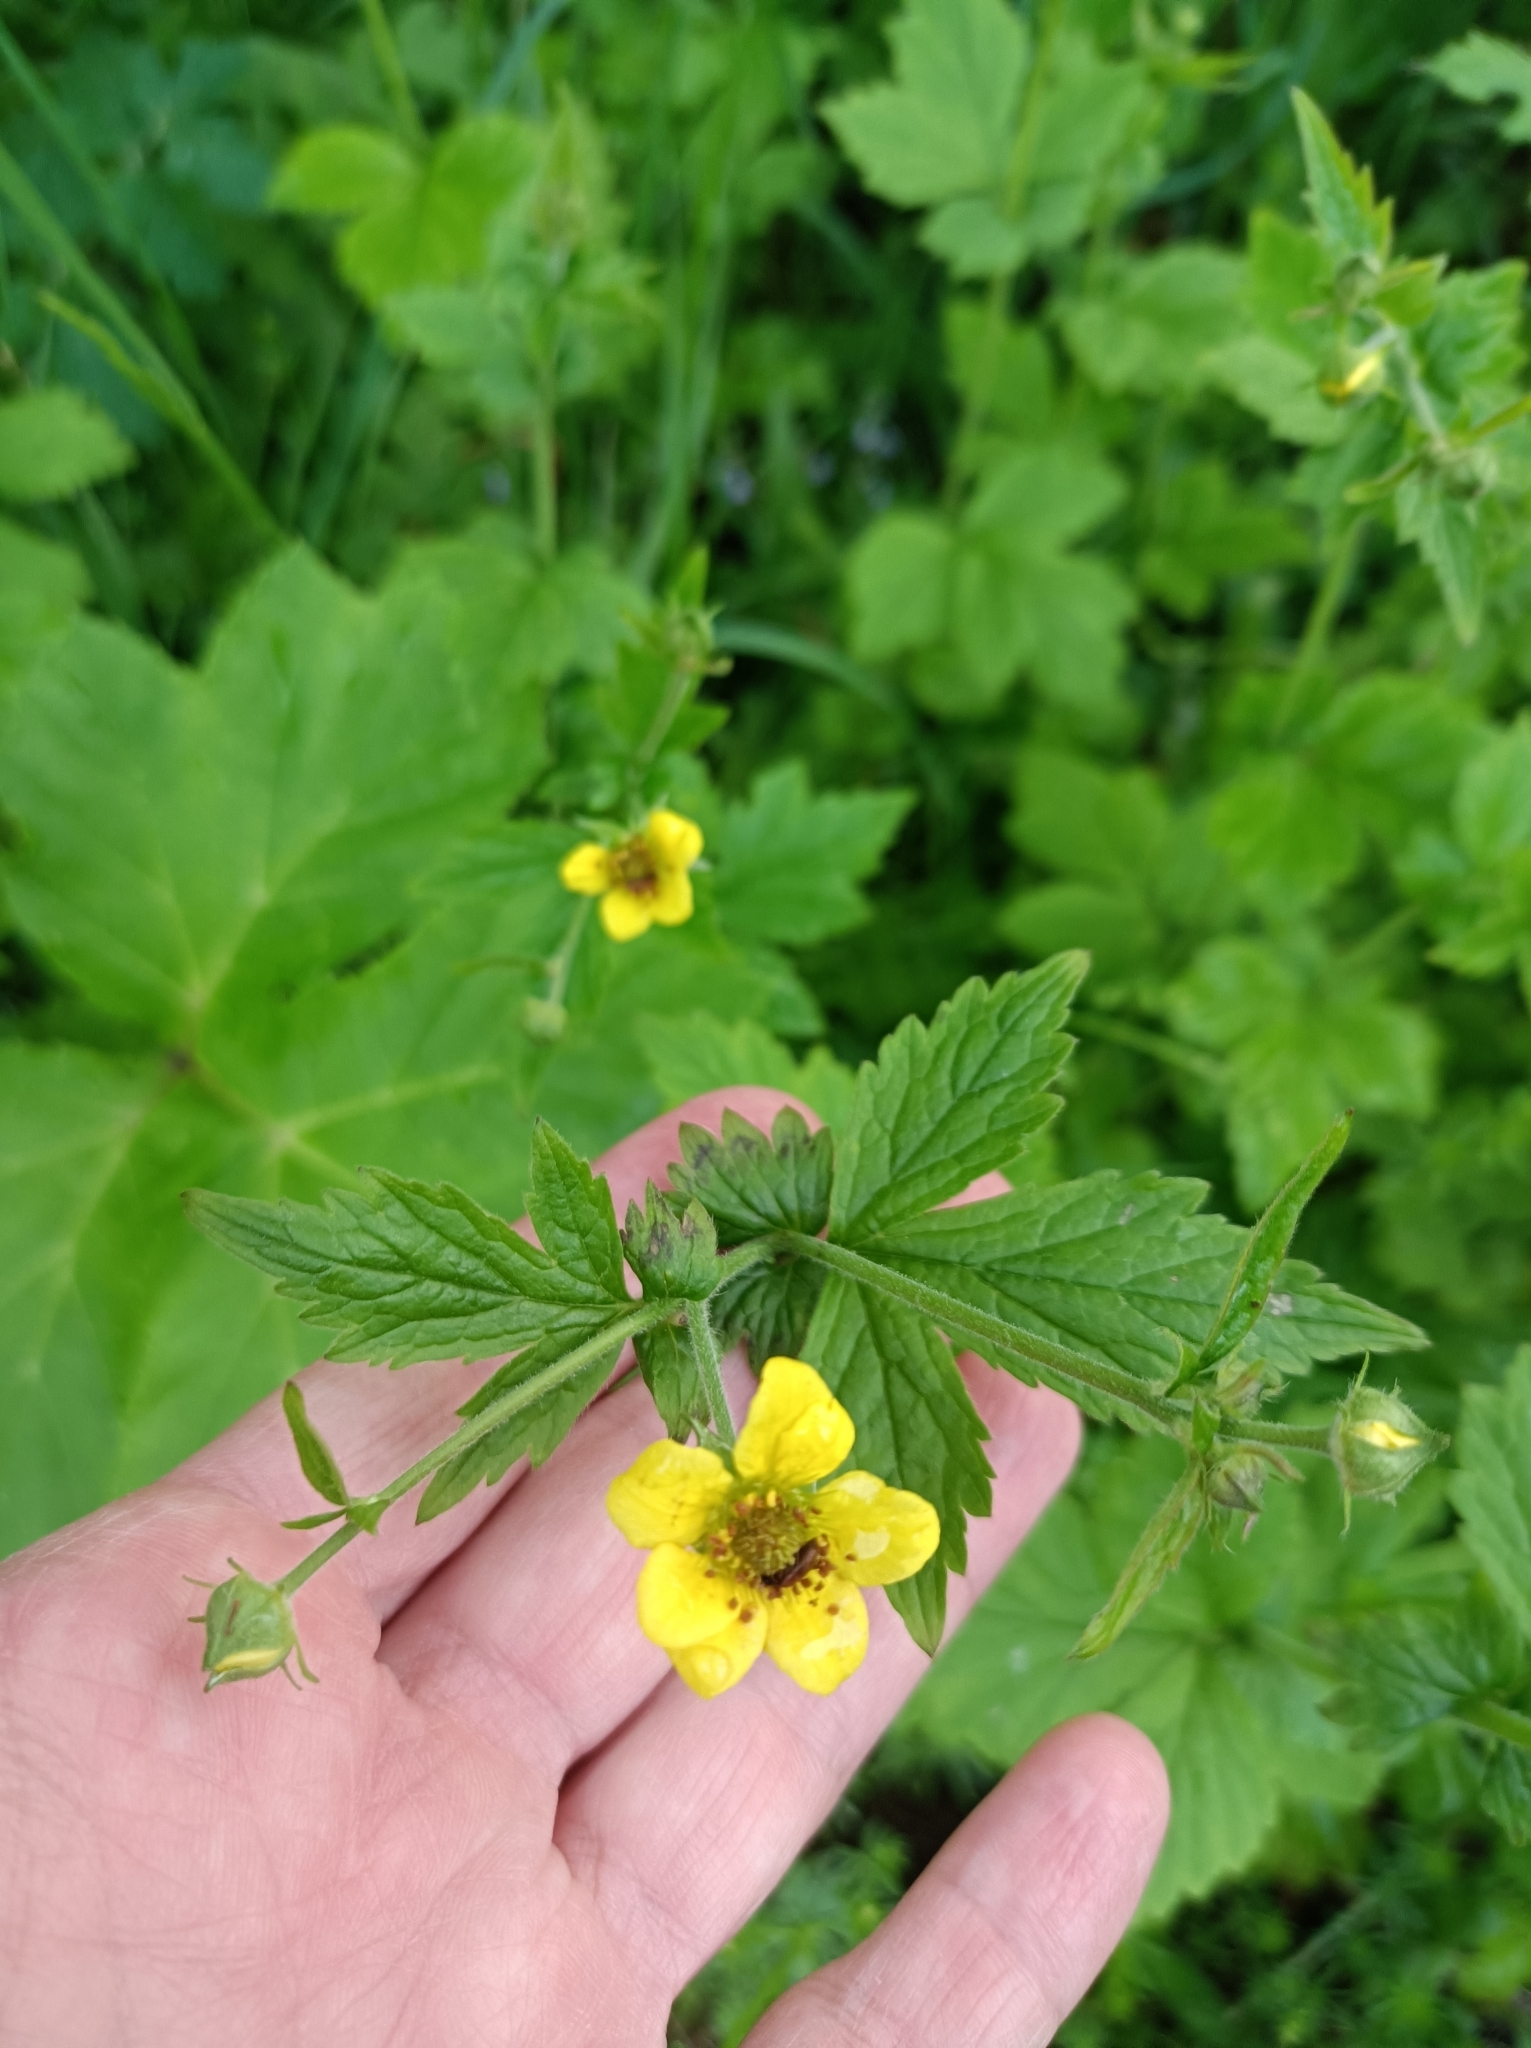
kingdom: Plantae
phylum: Tracheophyta
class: Magnoliopsida
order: Rosales
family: Rosaceae
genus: Geum
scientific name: Geum urbanum
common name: Wood avens
